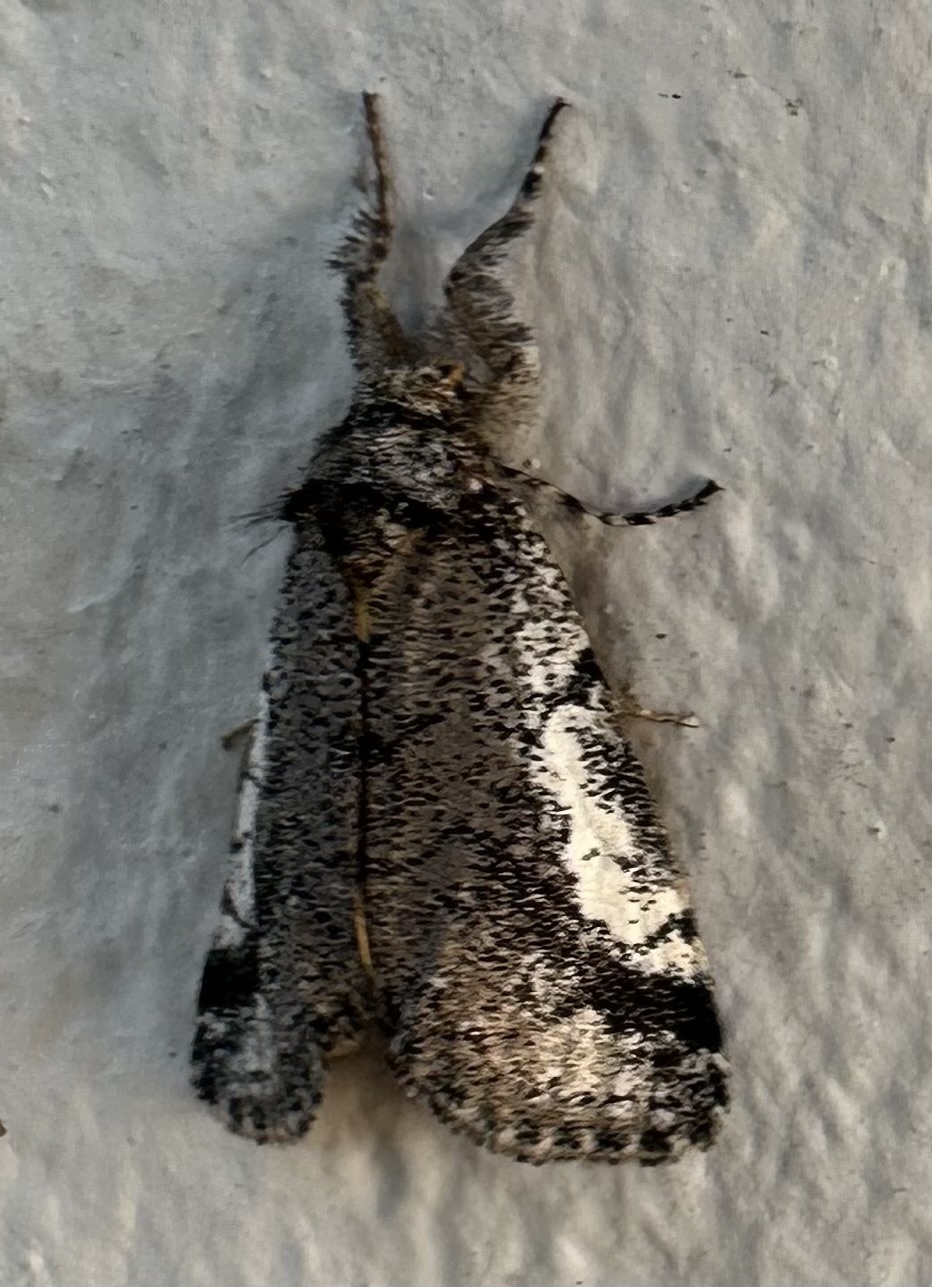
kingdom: Animalia
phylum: Arthropoda
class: Insecta
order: Lepidoptera
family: Erebidae
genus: Tearosoma
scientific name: Tearosoma aspersum
